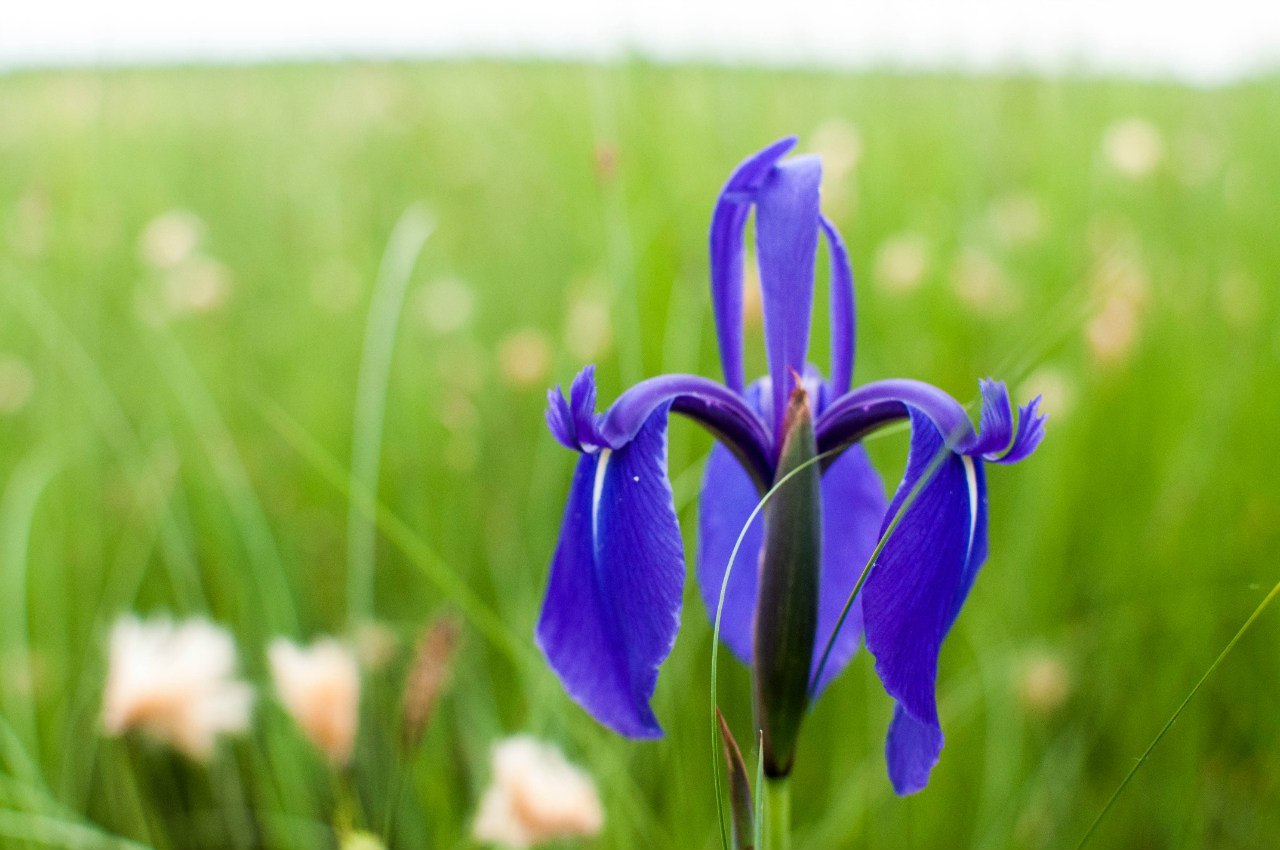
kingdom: Plantae
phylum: Tracheophyta
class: Liliopsida
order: Asparagales
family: Iridaceae
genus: Iris
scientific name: Iris laevigata
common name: Japanese iris
